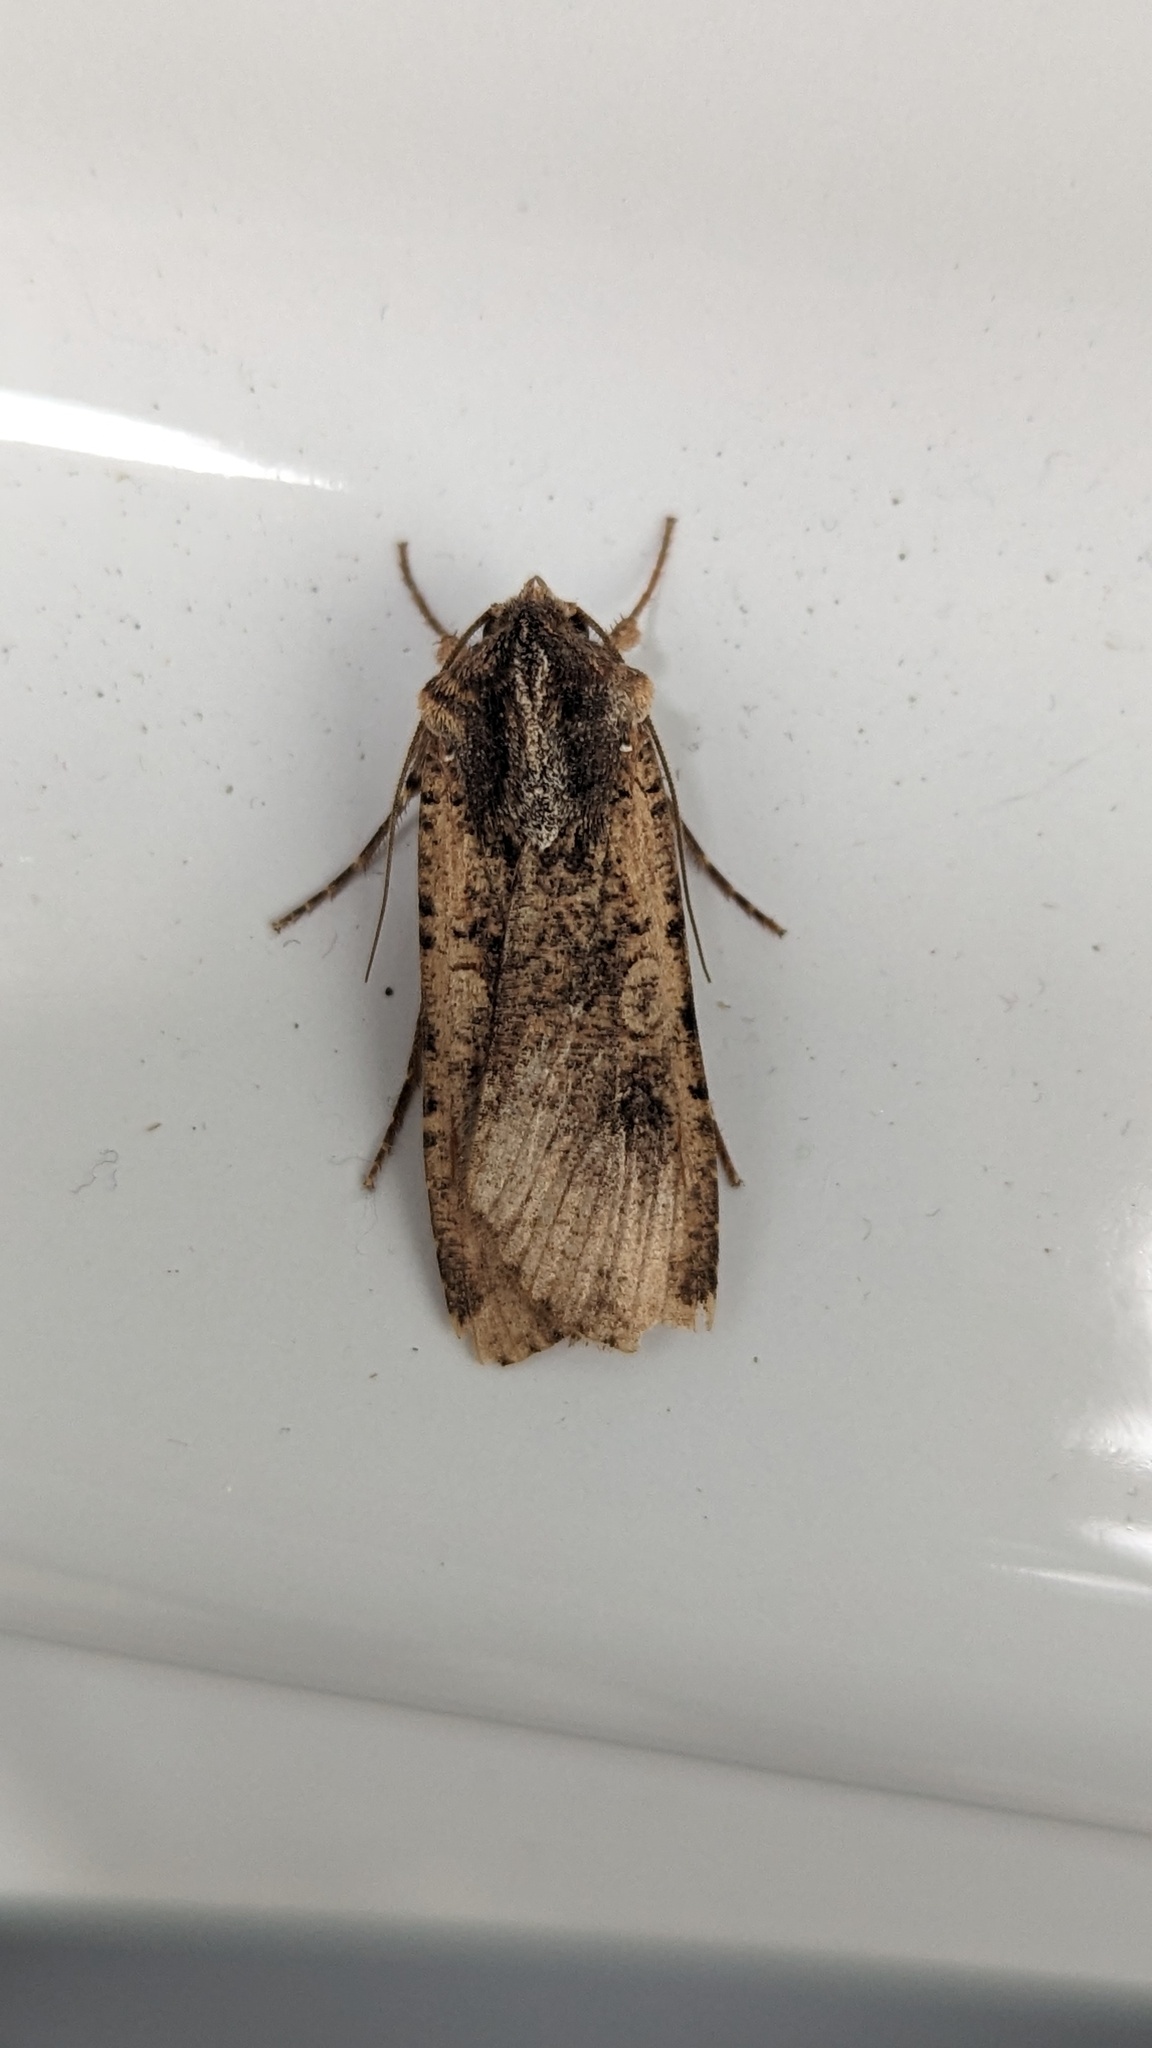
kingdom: Animalia
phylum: Arthropoda
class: Insecta
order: Lepidoptera
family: Noctuidae
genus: Peridroma
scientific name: Peridroma saucia
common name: Pearly underwing
